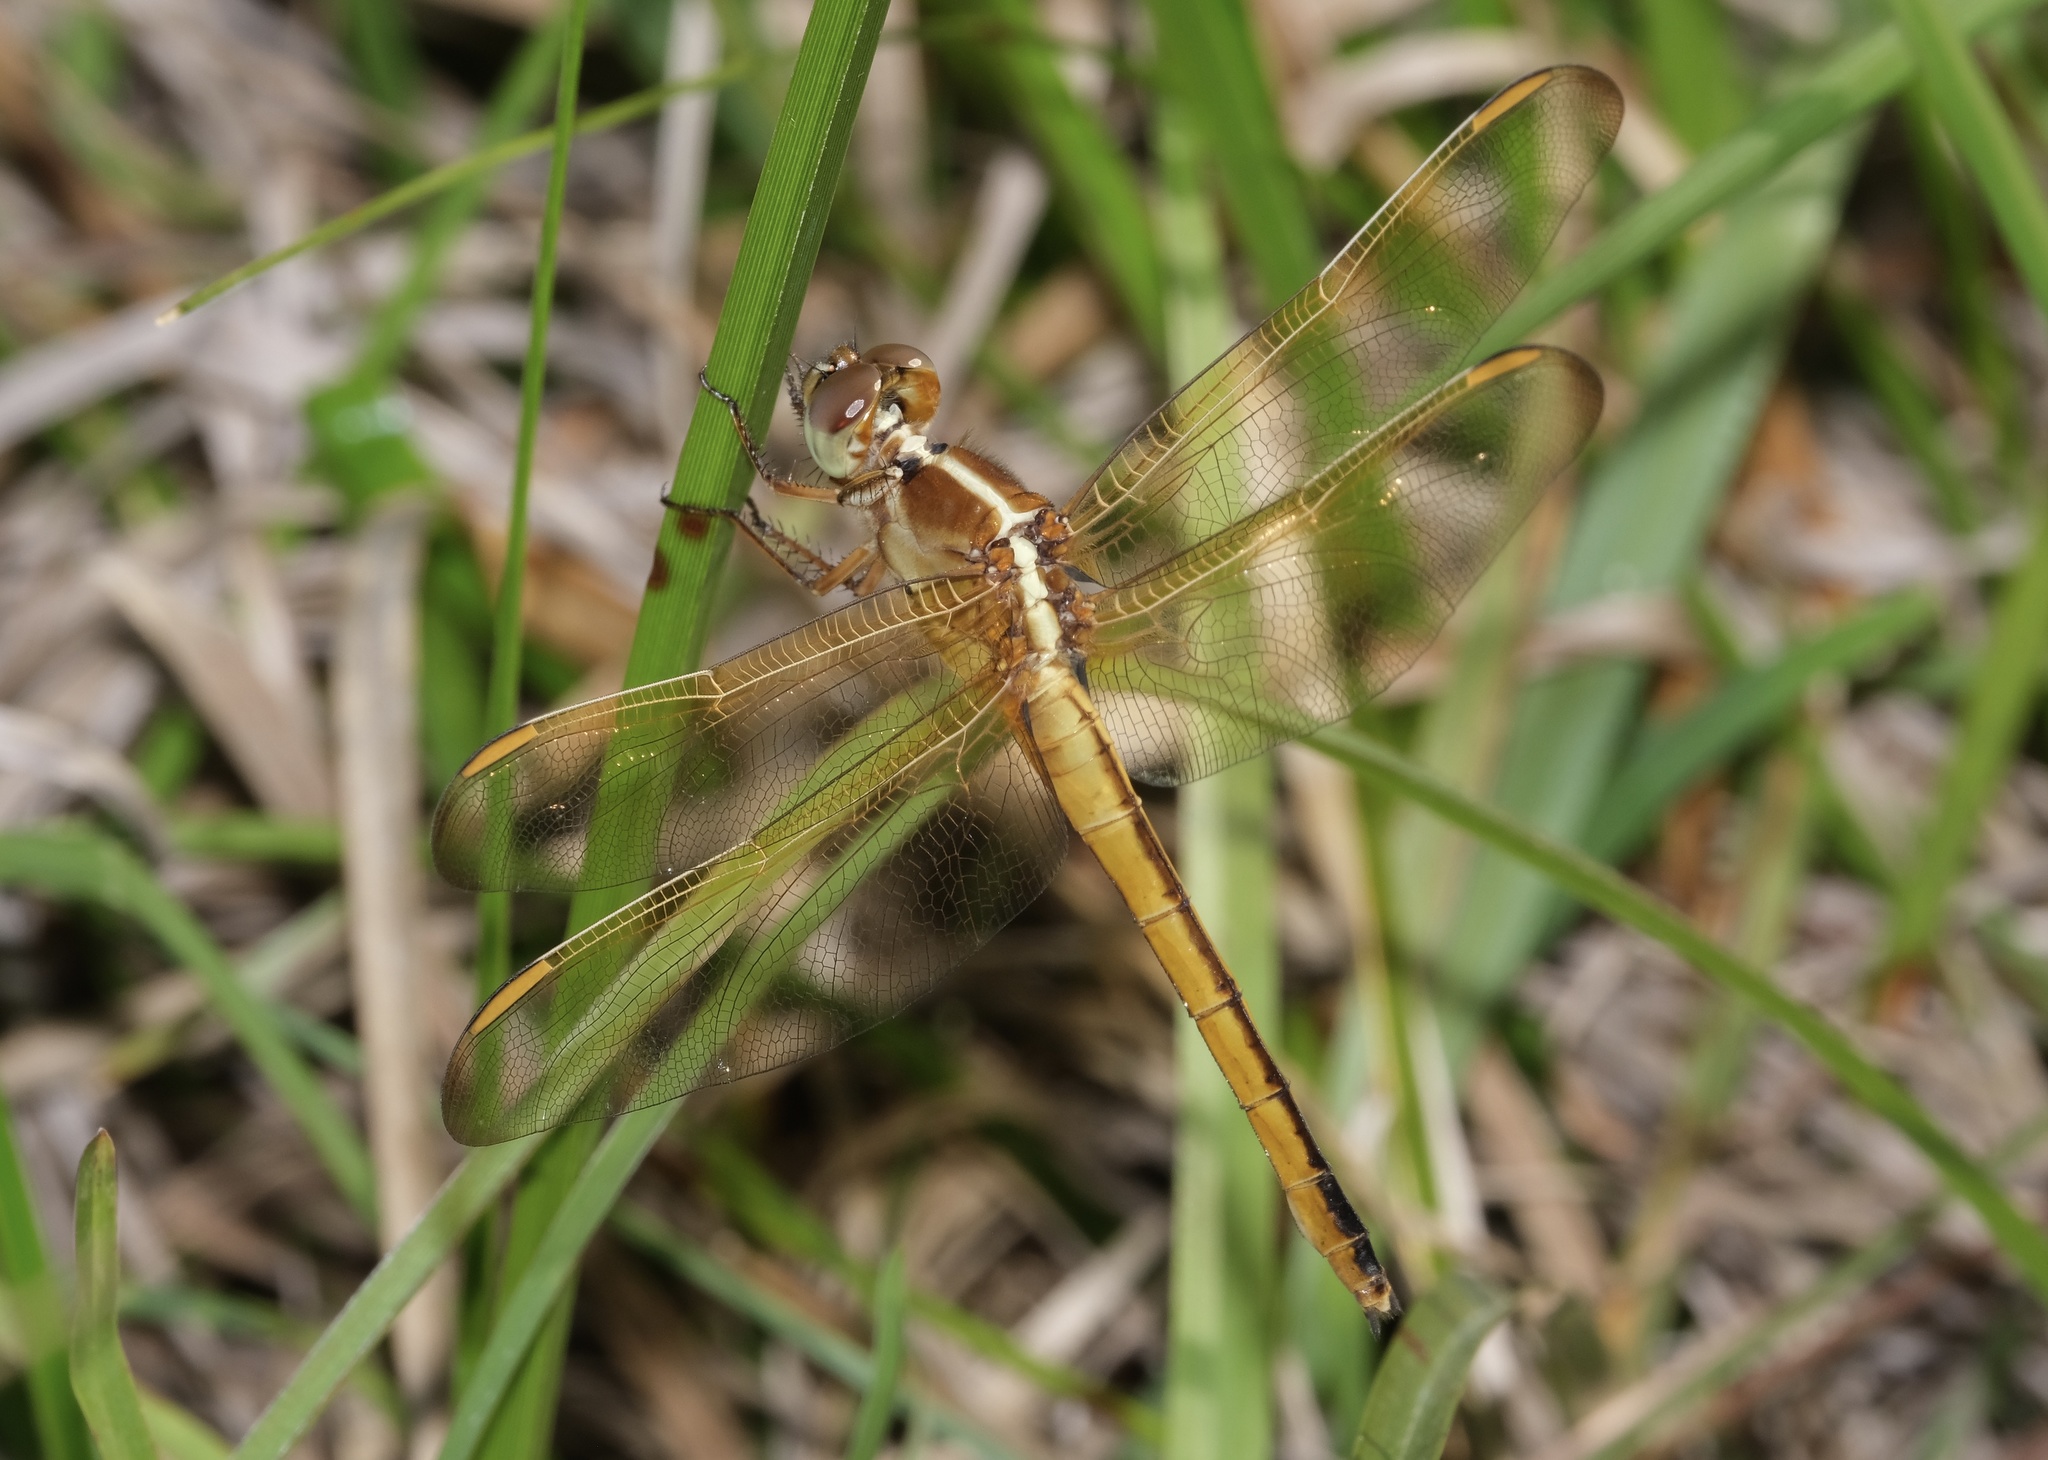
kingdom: Animalia
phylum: Arthropoda
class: Insecta
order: Odonata
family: Libellulidae
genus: Libellula
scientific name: Libellula needhami
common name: Needham's skimmer
